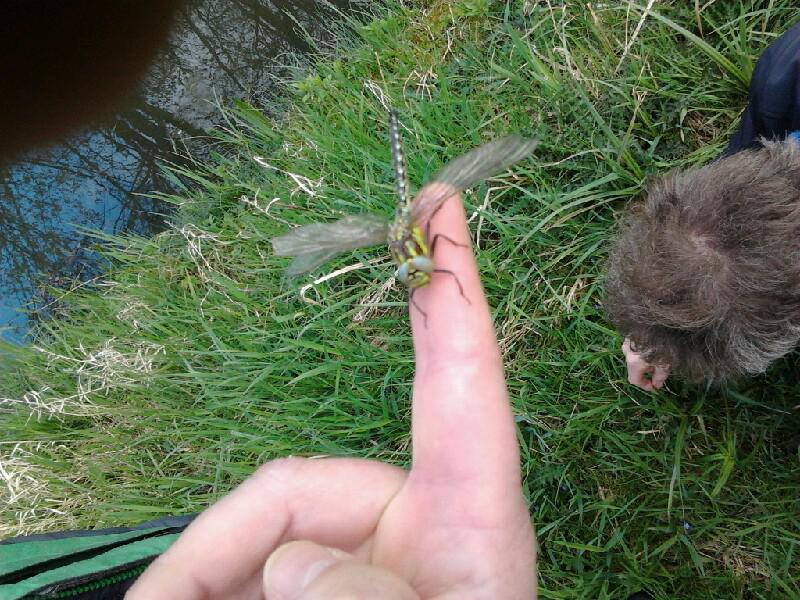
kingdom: Animalia
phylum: Arthropoda
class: Insecta
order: Odonata
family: Aeshnidae
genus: Brachytron
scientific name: Brachytron pratense
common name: Hairy hawker
